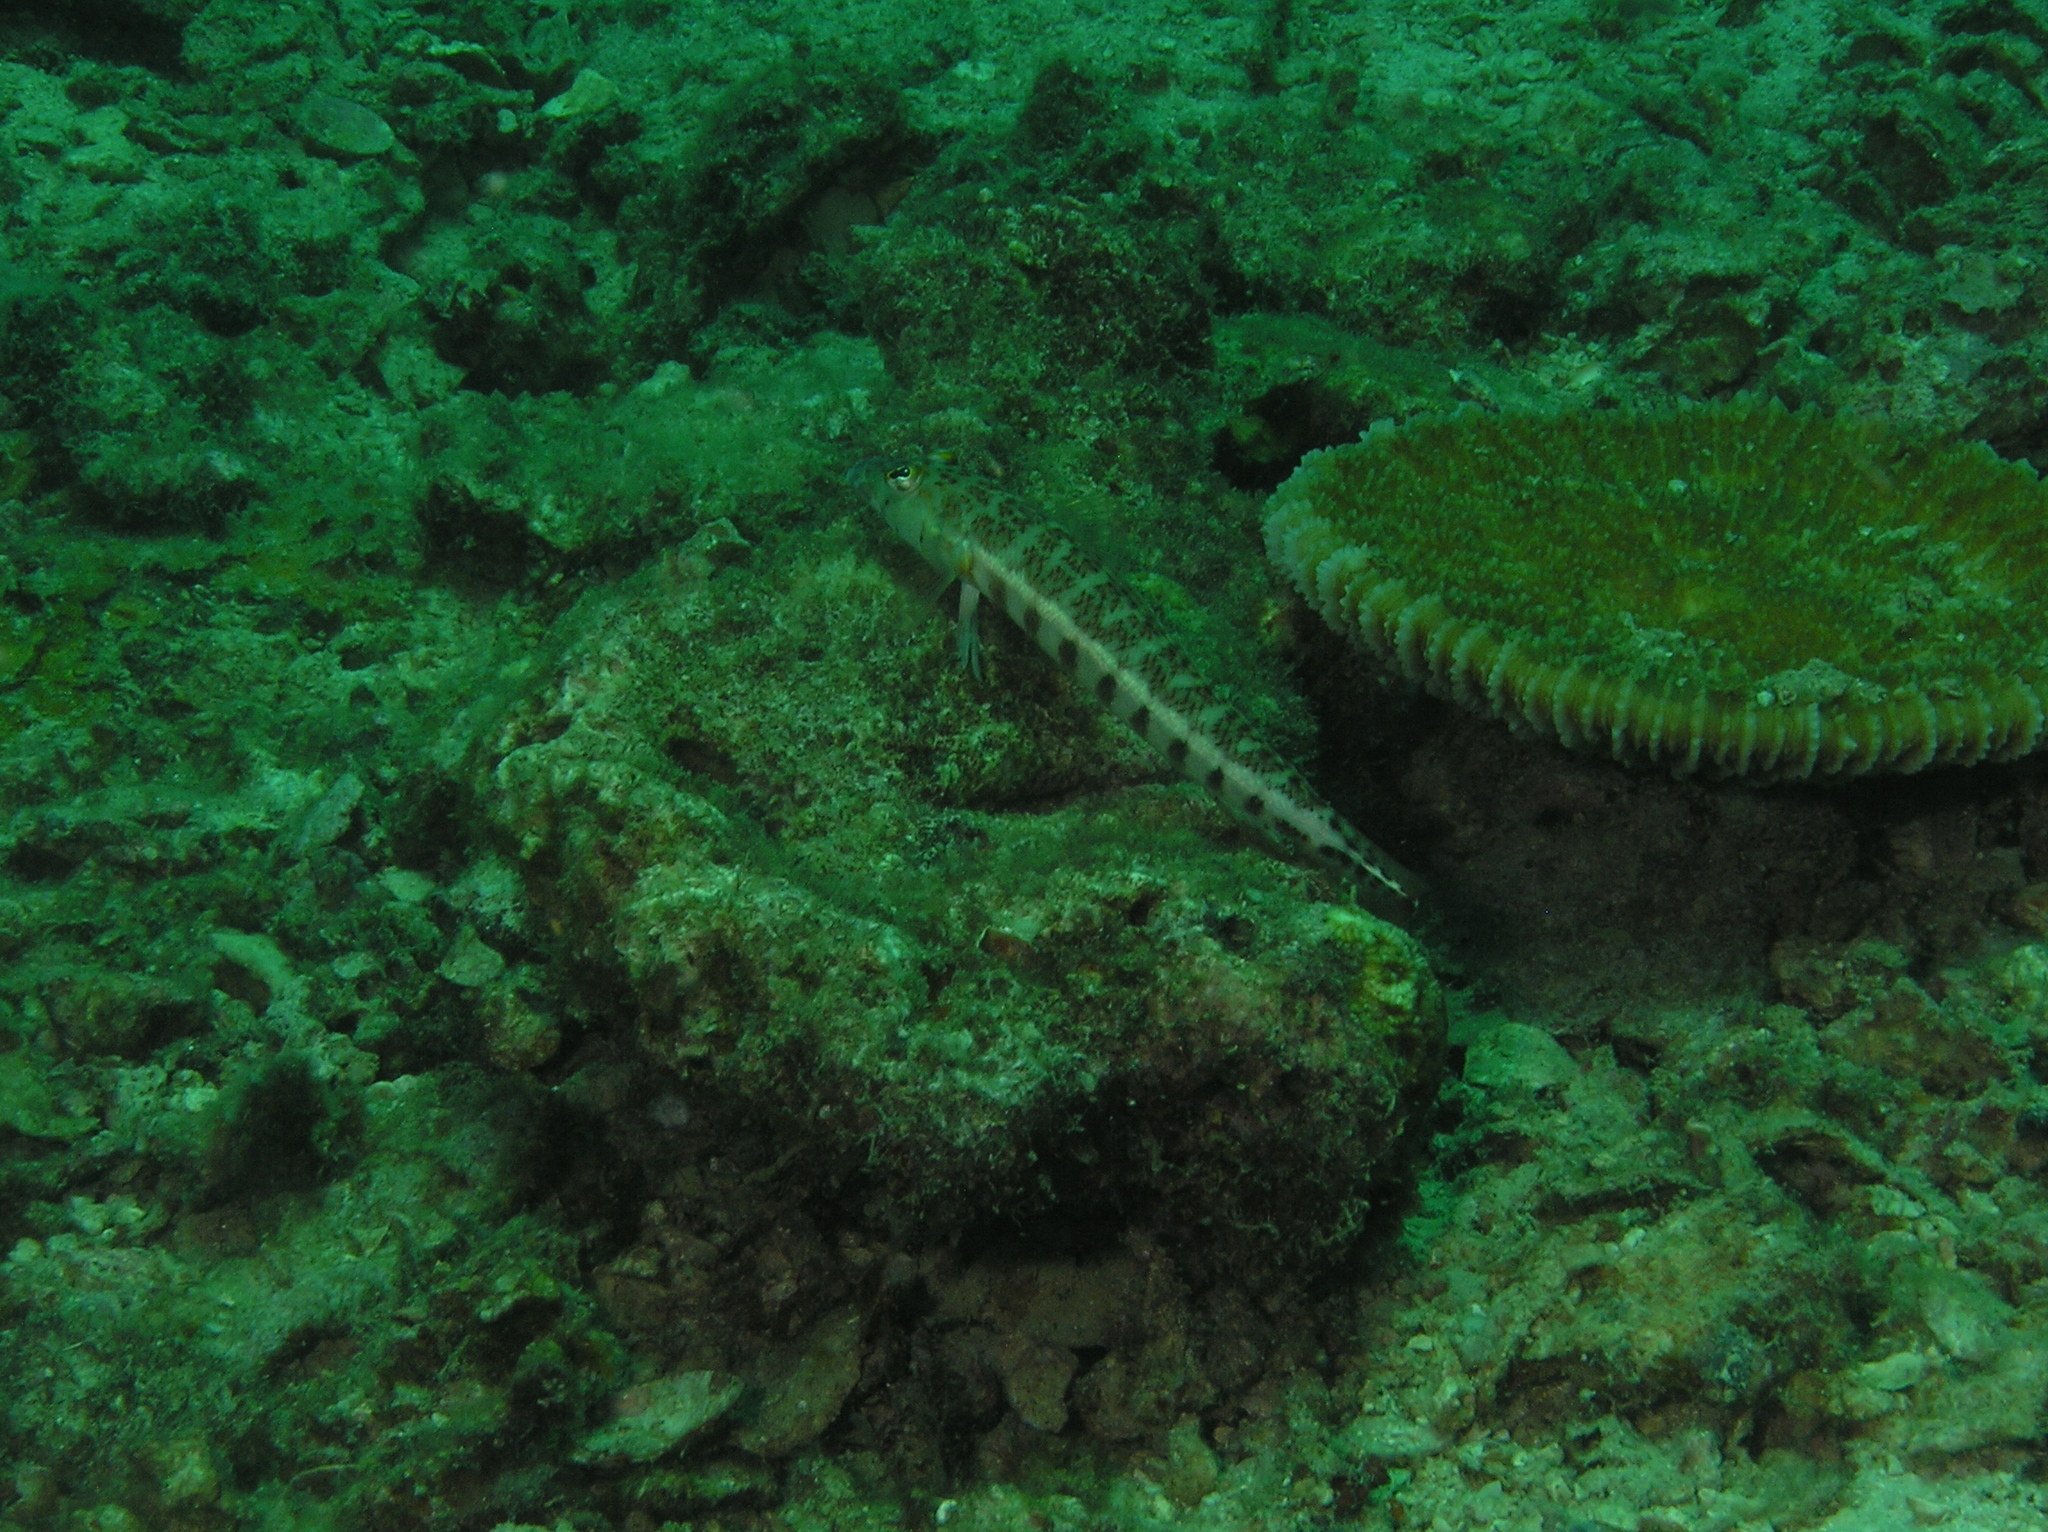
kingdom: Animalia
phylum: Chordata
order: Perciformes
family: Pinguipedidae
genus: Parapercis
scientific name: Parapercis xanthozona
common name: Yellowbar sandperch
